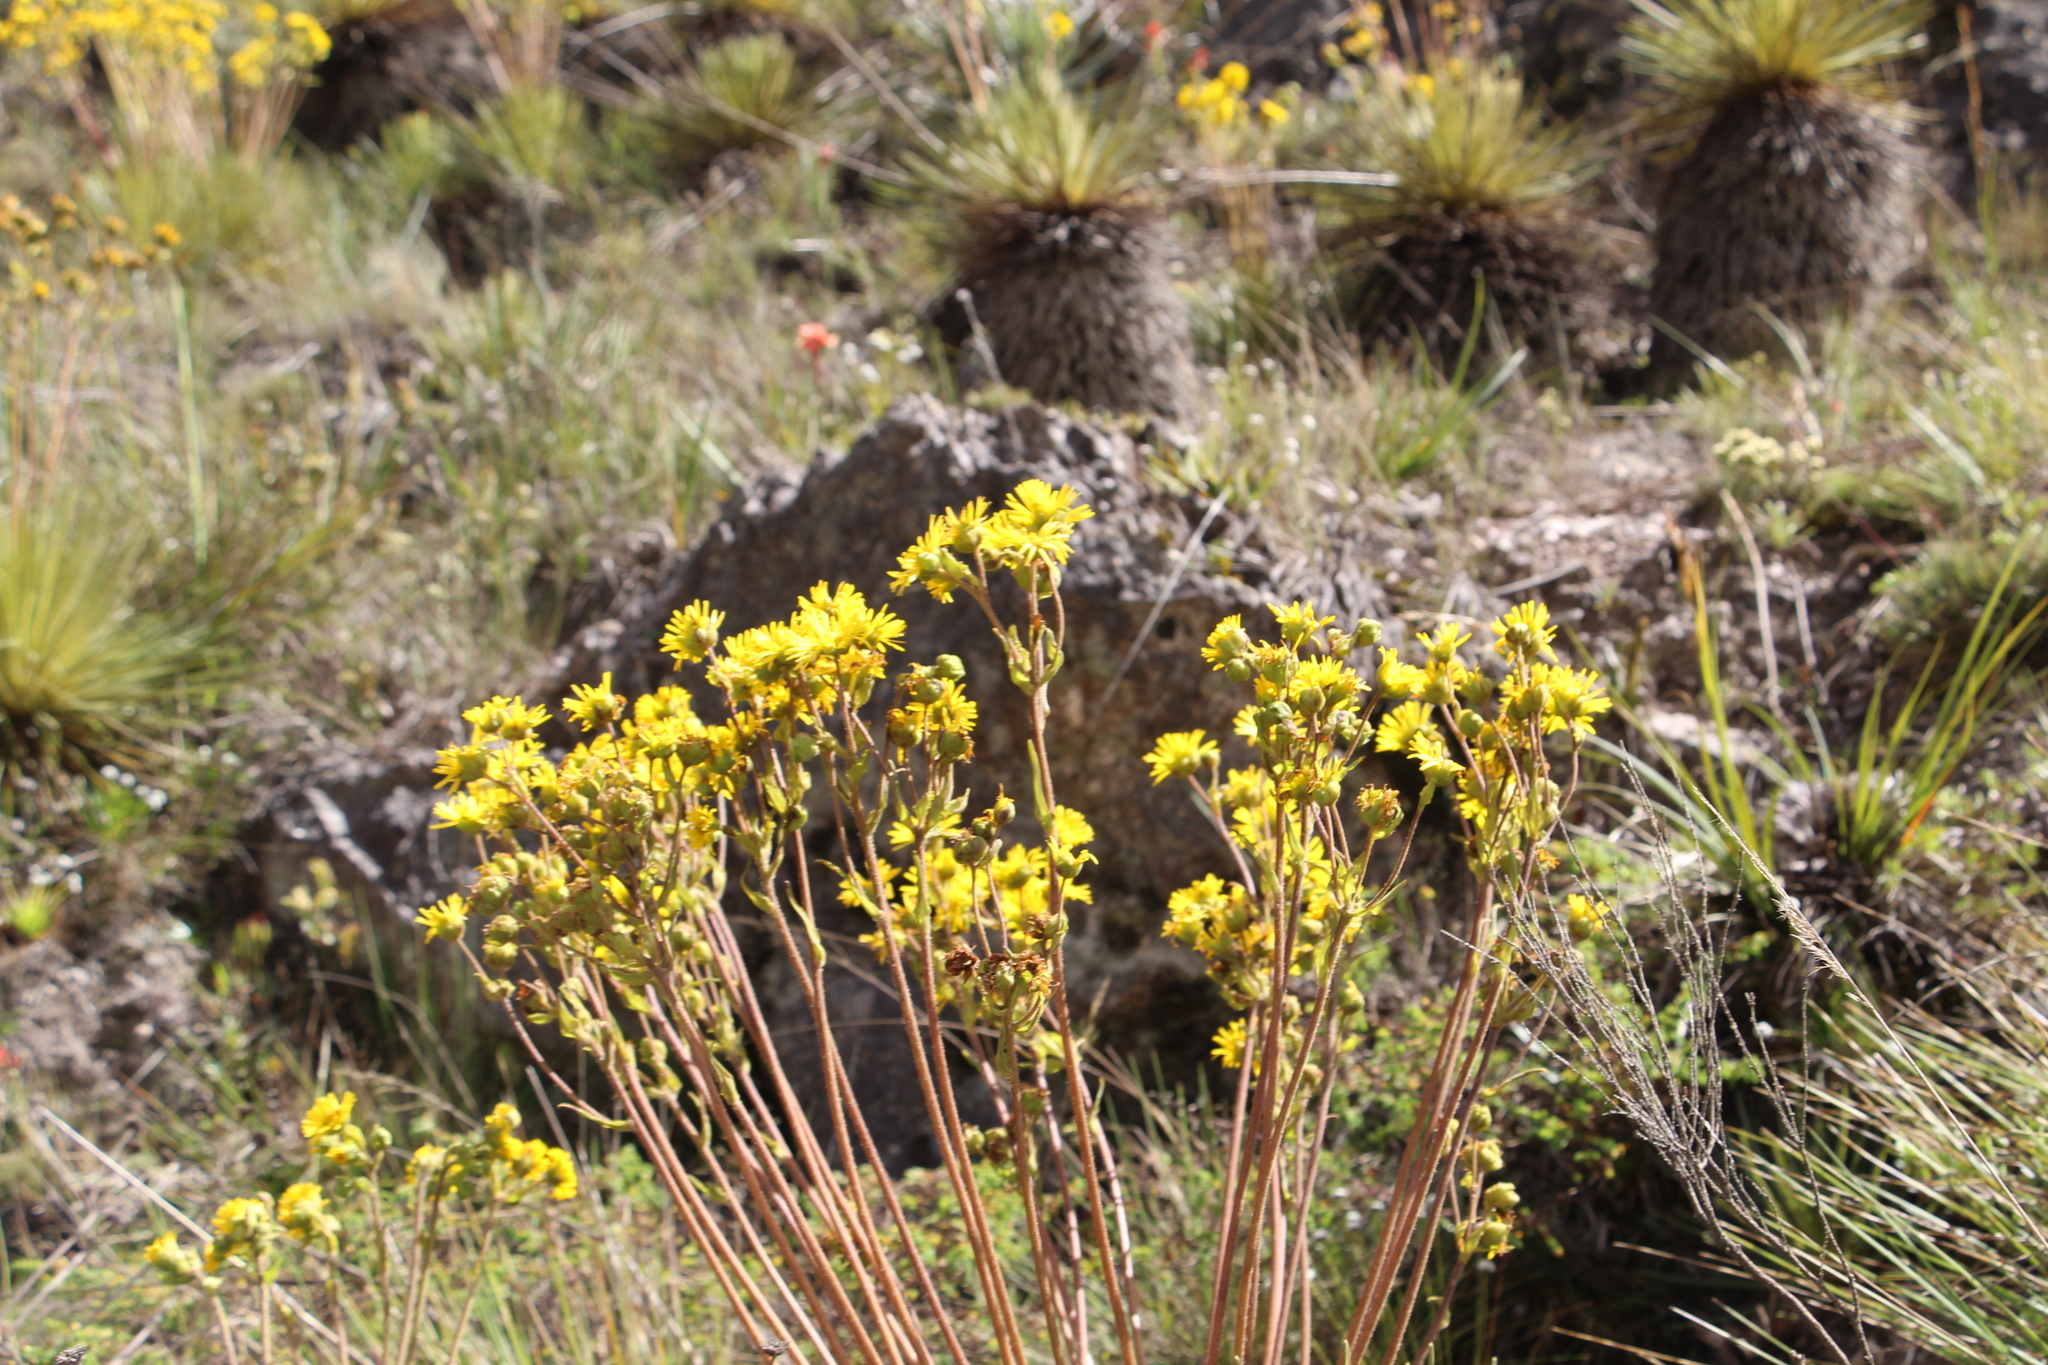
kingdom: Plantae
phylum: Tracheophyta
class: Magnoliopsida
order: Asterales
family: Asteraceae
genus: Espeletia
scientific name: Espeletia glandulosa
